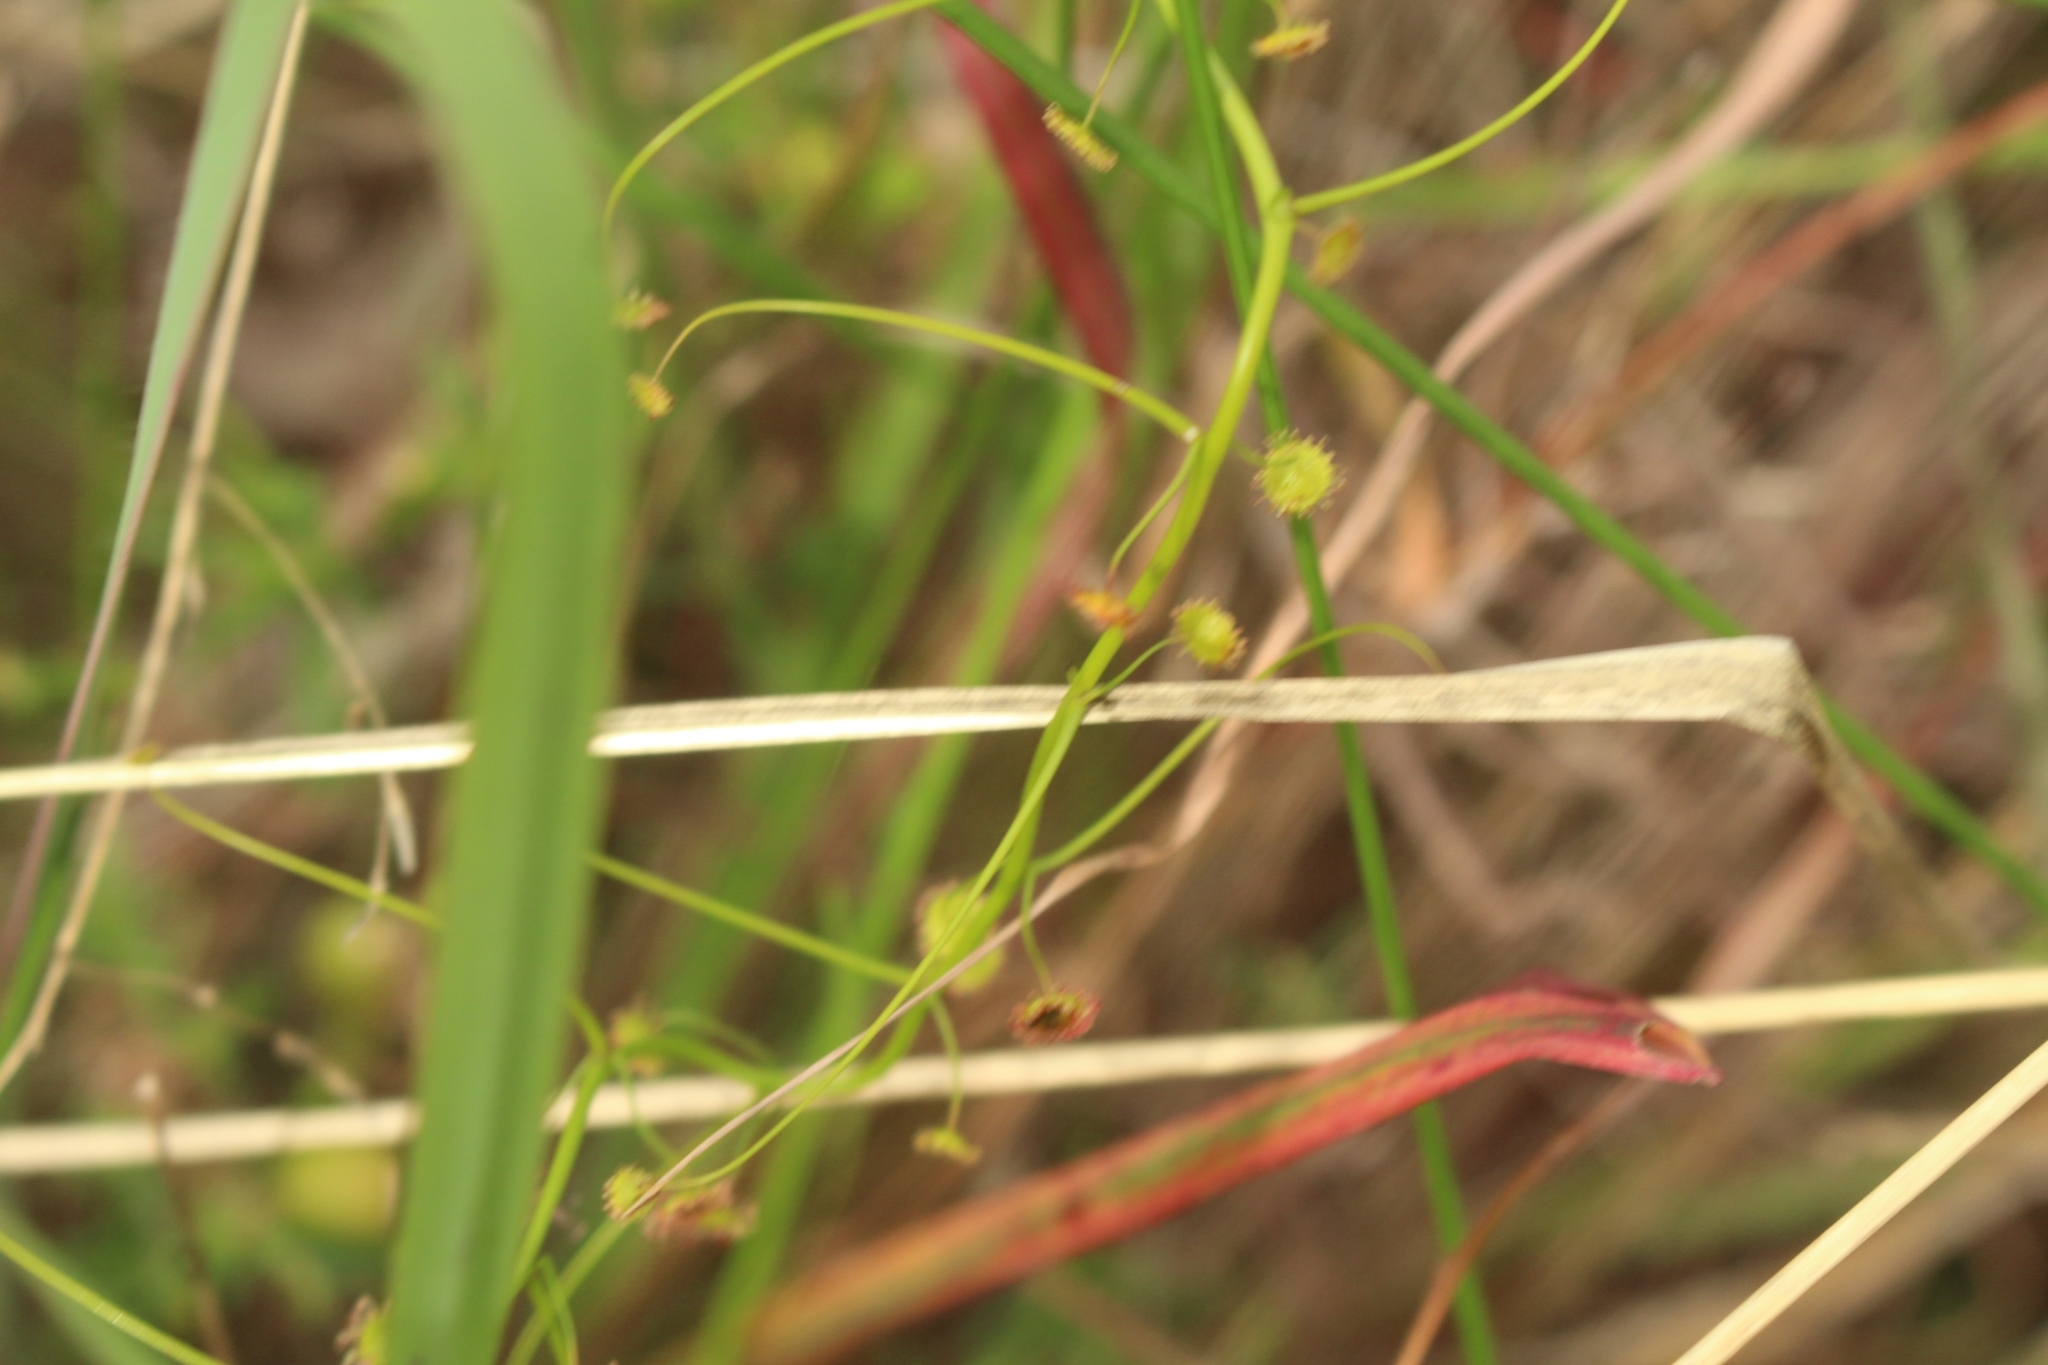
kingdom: Plantae
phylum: Tracheophyta
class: Magnoliopsida
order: Caryophyllales
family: Droseraceae
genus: Drosera
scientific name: Drosera pallida
